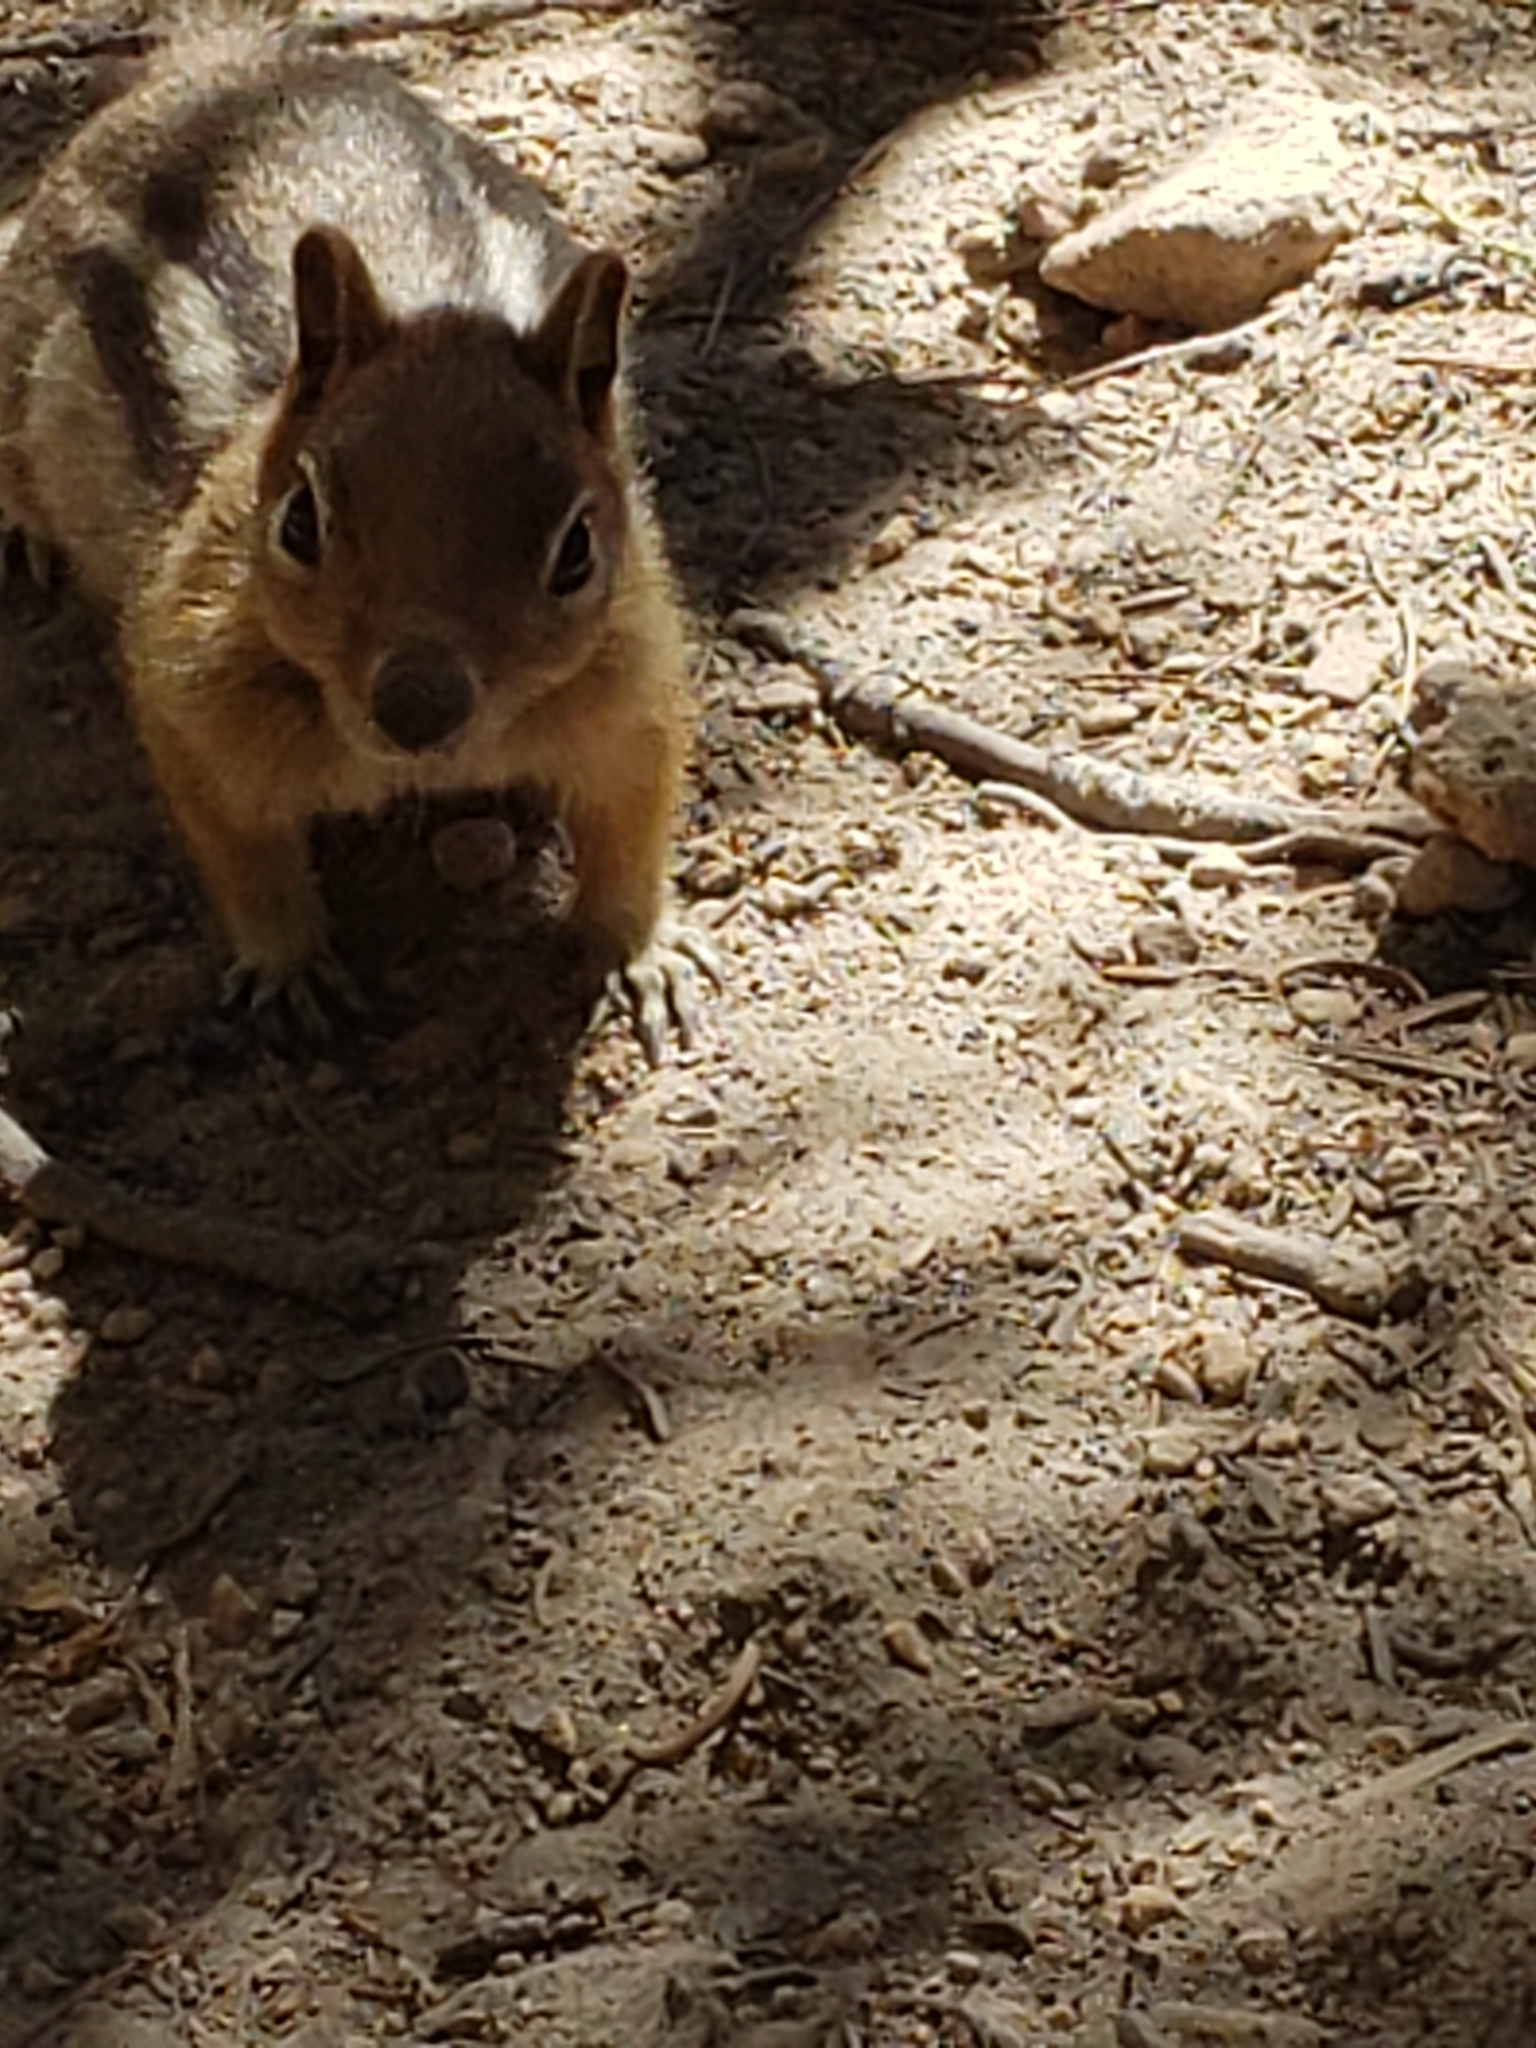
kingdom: Animalia
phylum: Chordata
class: Mammalia
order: Rodentia
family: Sciuridae
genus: Callospermophilus
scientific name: Callospermophilus lateralis
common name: Golden-mantled ground squirrel
